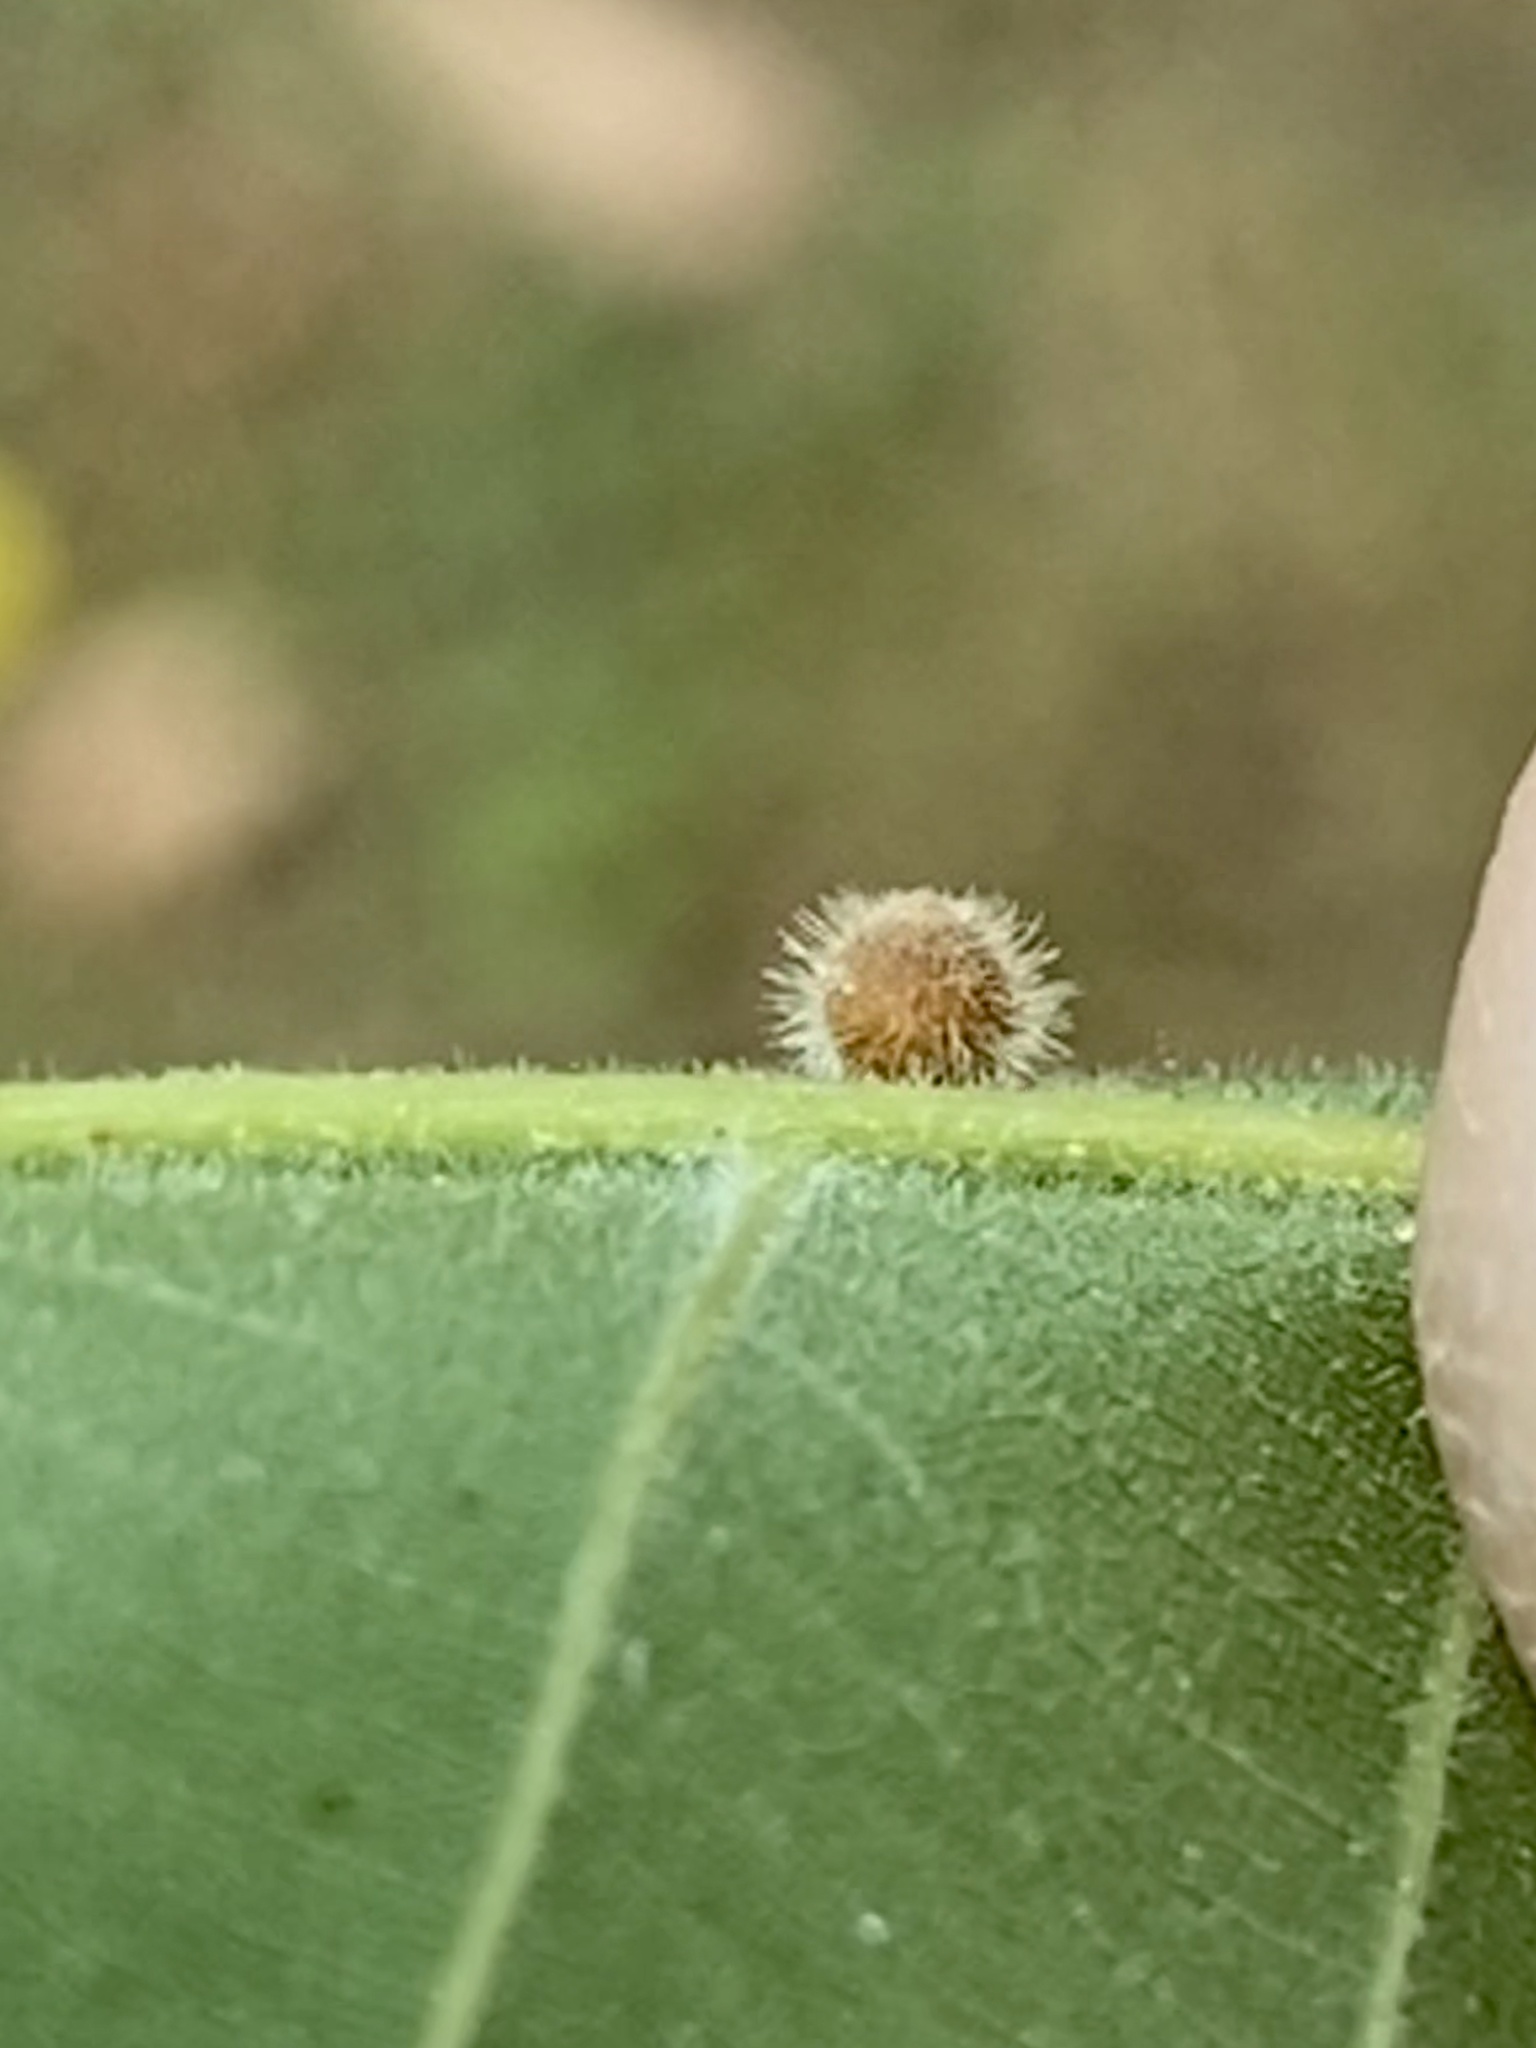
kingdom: Animalia
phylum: Arthropoda
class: Insecta
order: Diptera
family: Cecidomyiidae
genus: Caryomyia
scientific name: Caryomyia cilidolium
